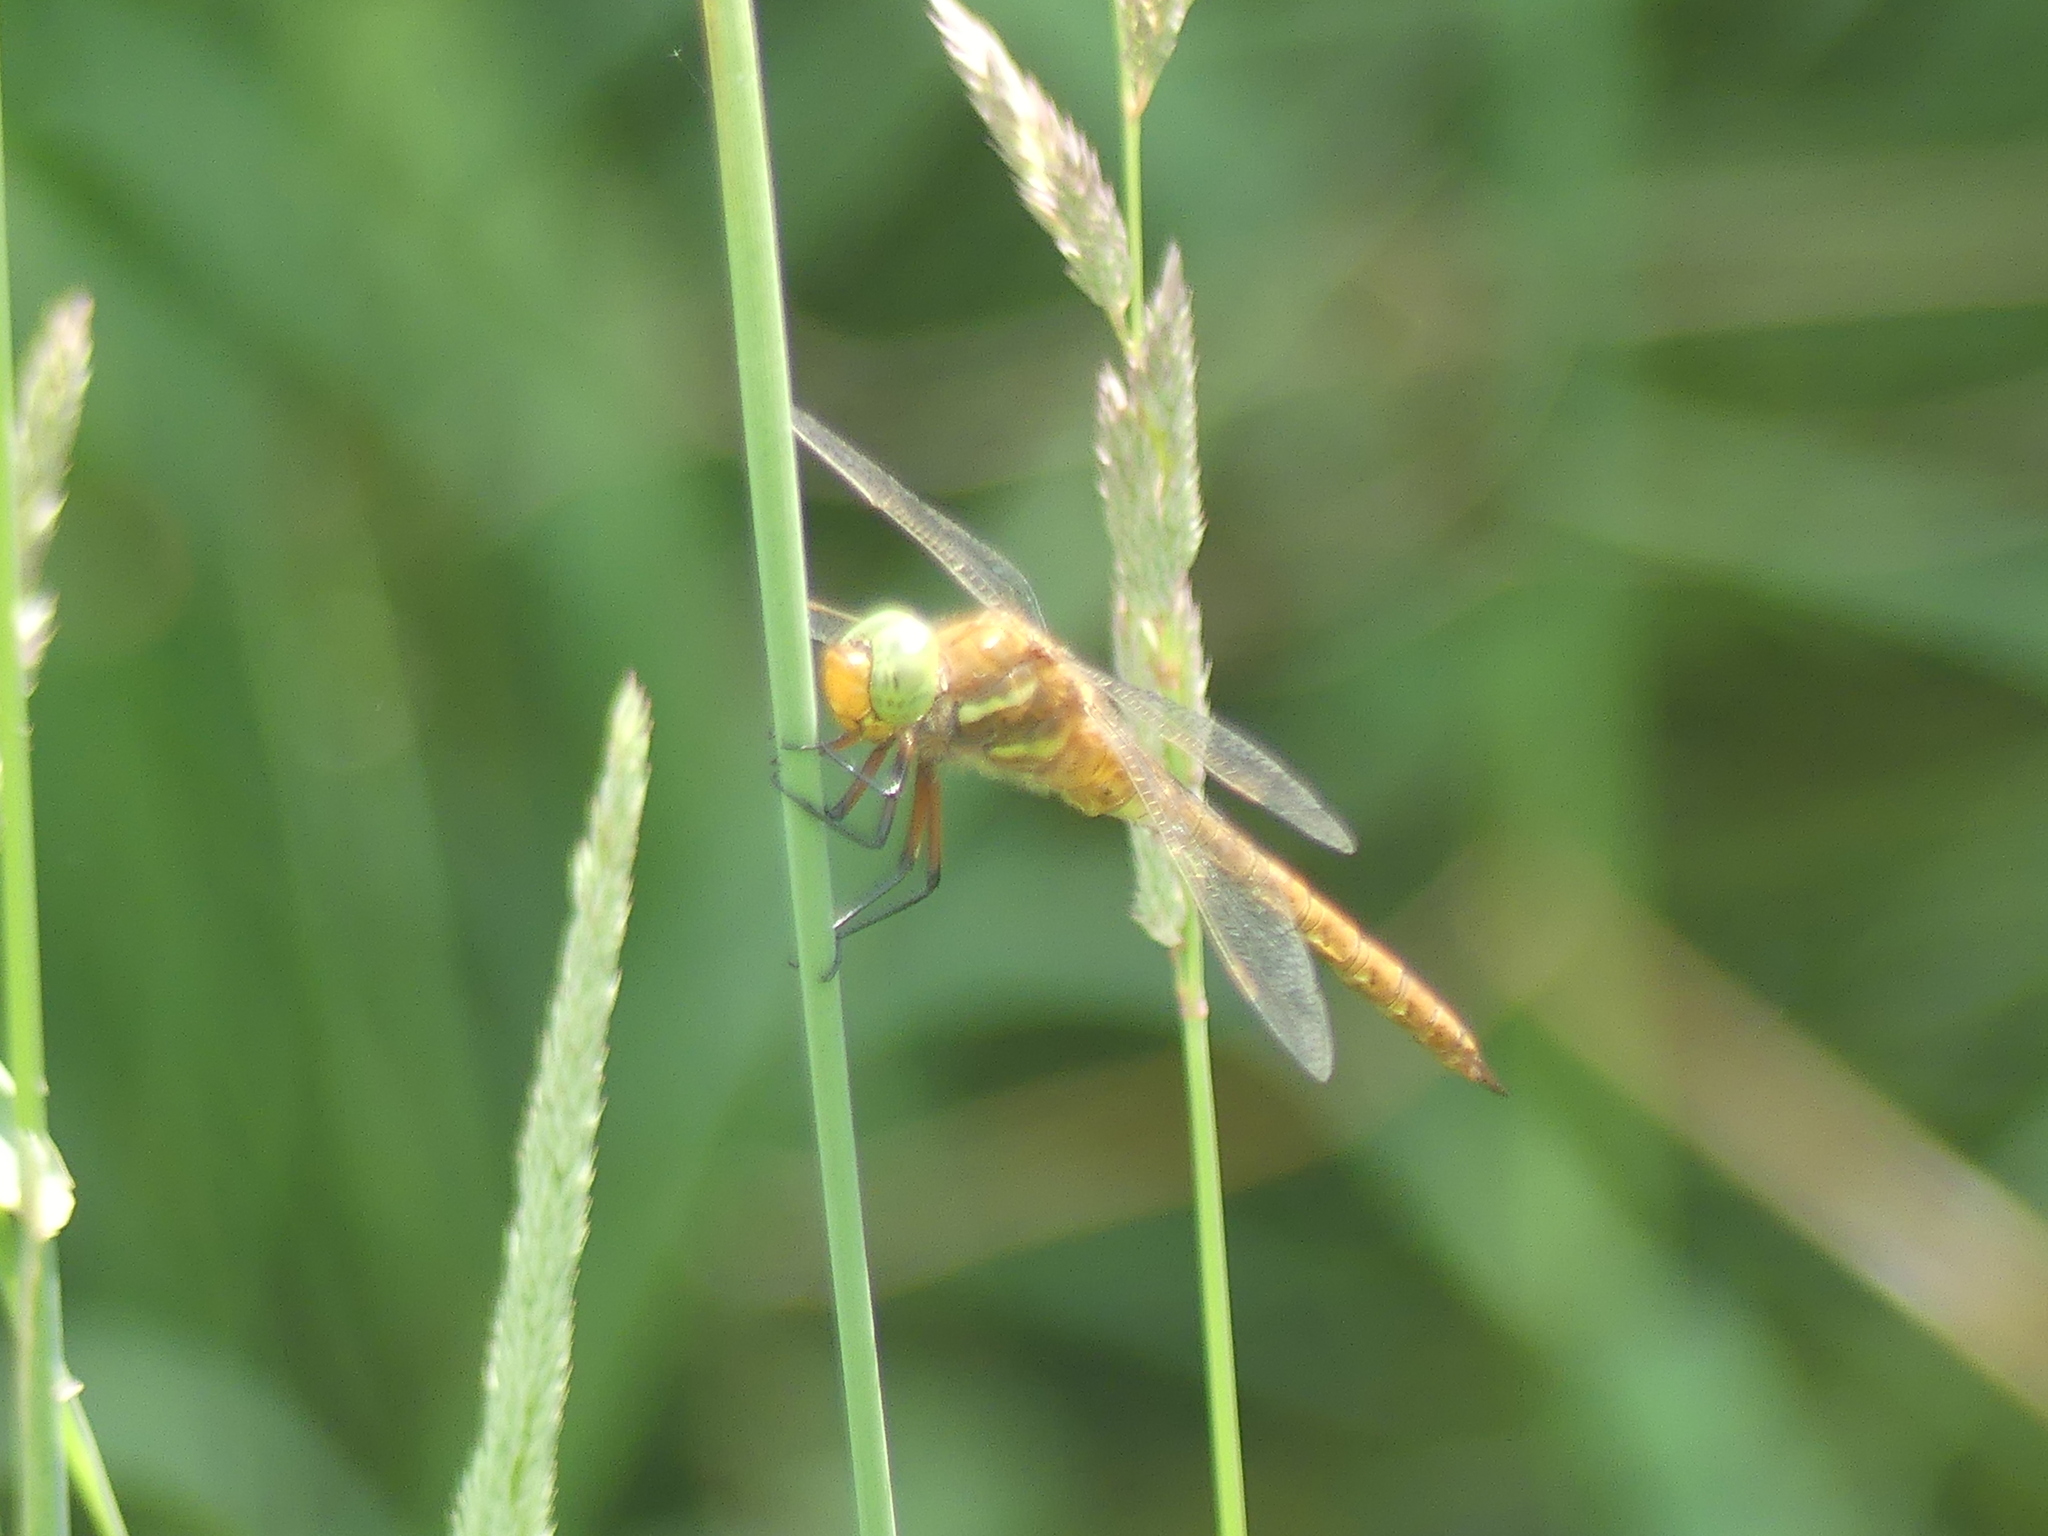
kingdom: Animalia
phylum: Arthropoda
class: Insecta
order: Odonata
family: Aeshnidae
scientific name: Aeshnidae
